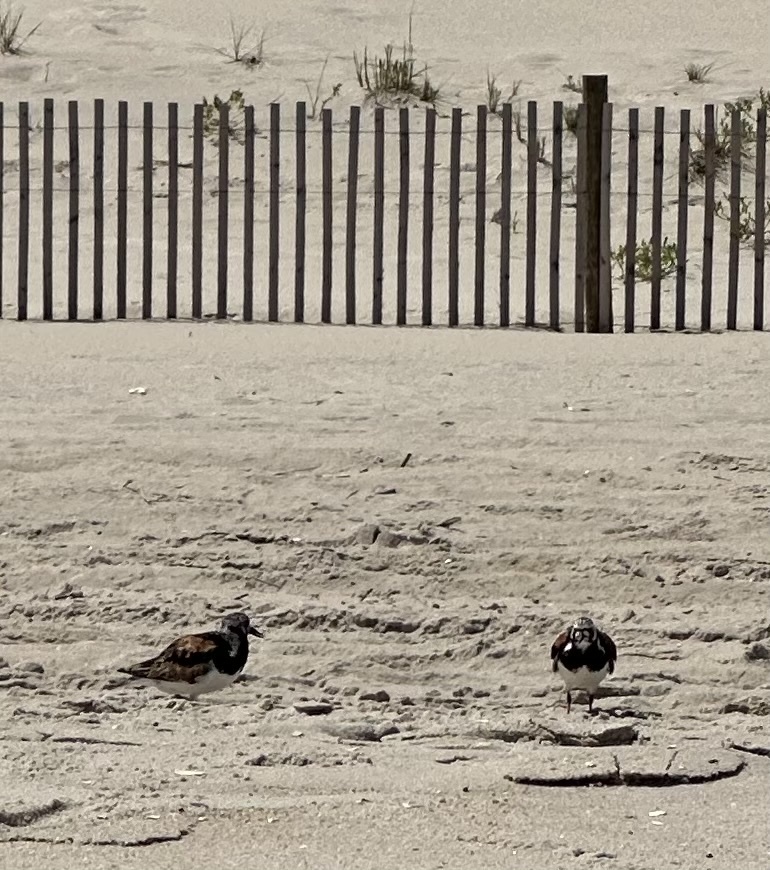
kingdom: Animalia
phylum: Chordata
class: Aves
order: Charadriiformes
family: Scolopacidae
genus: Arenaria
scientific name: Arenaria interpres
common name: Ruddy turnstone
